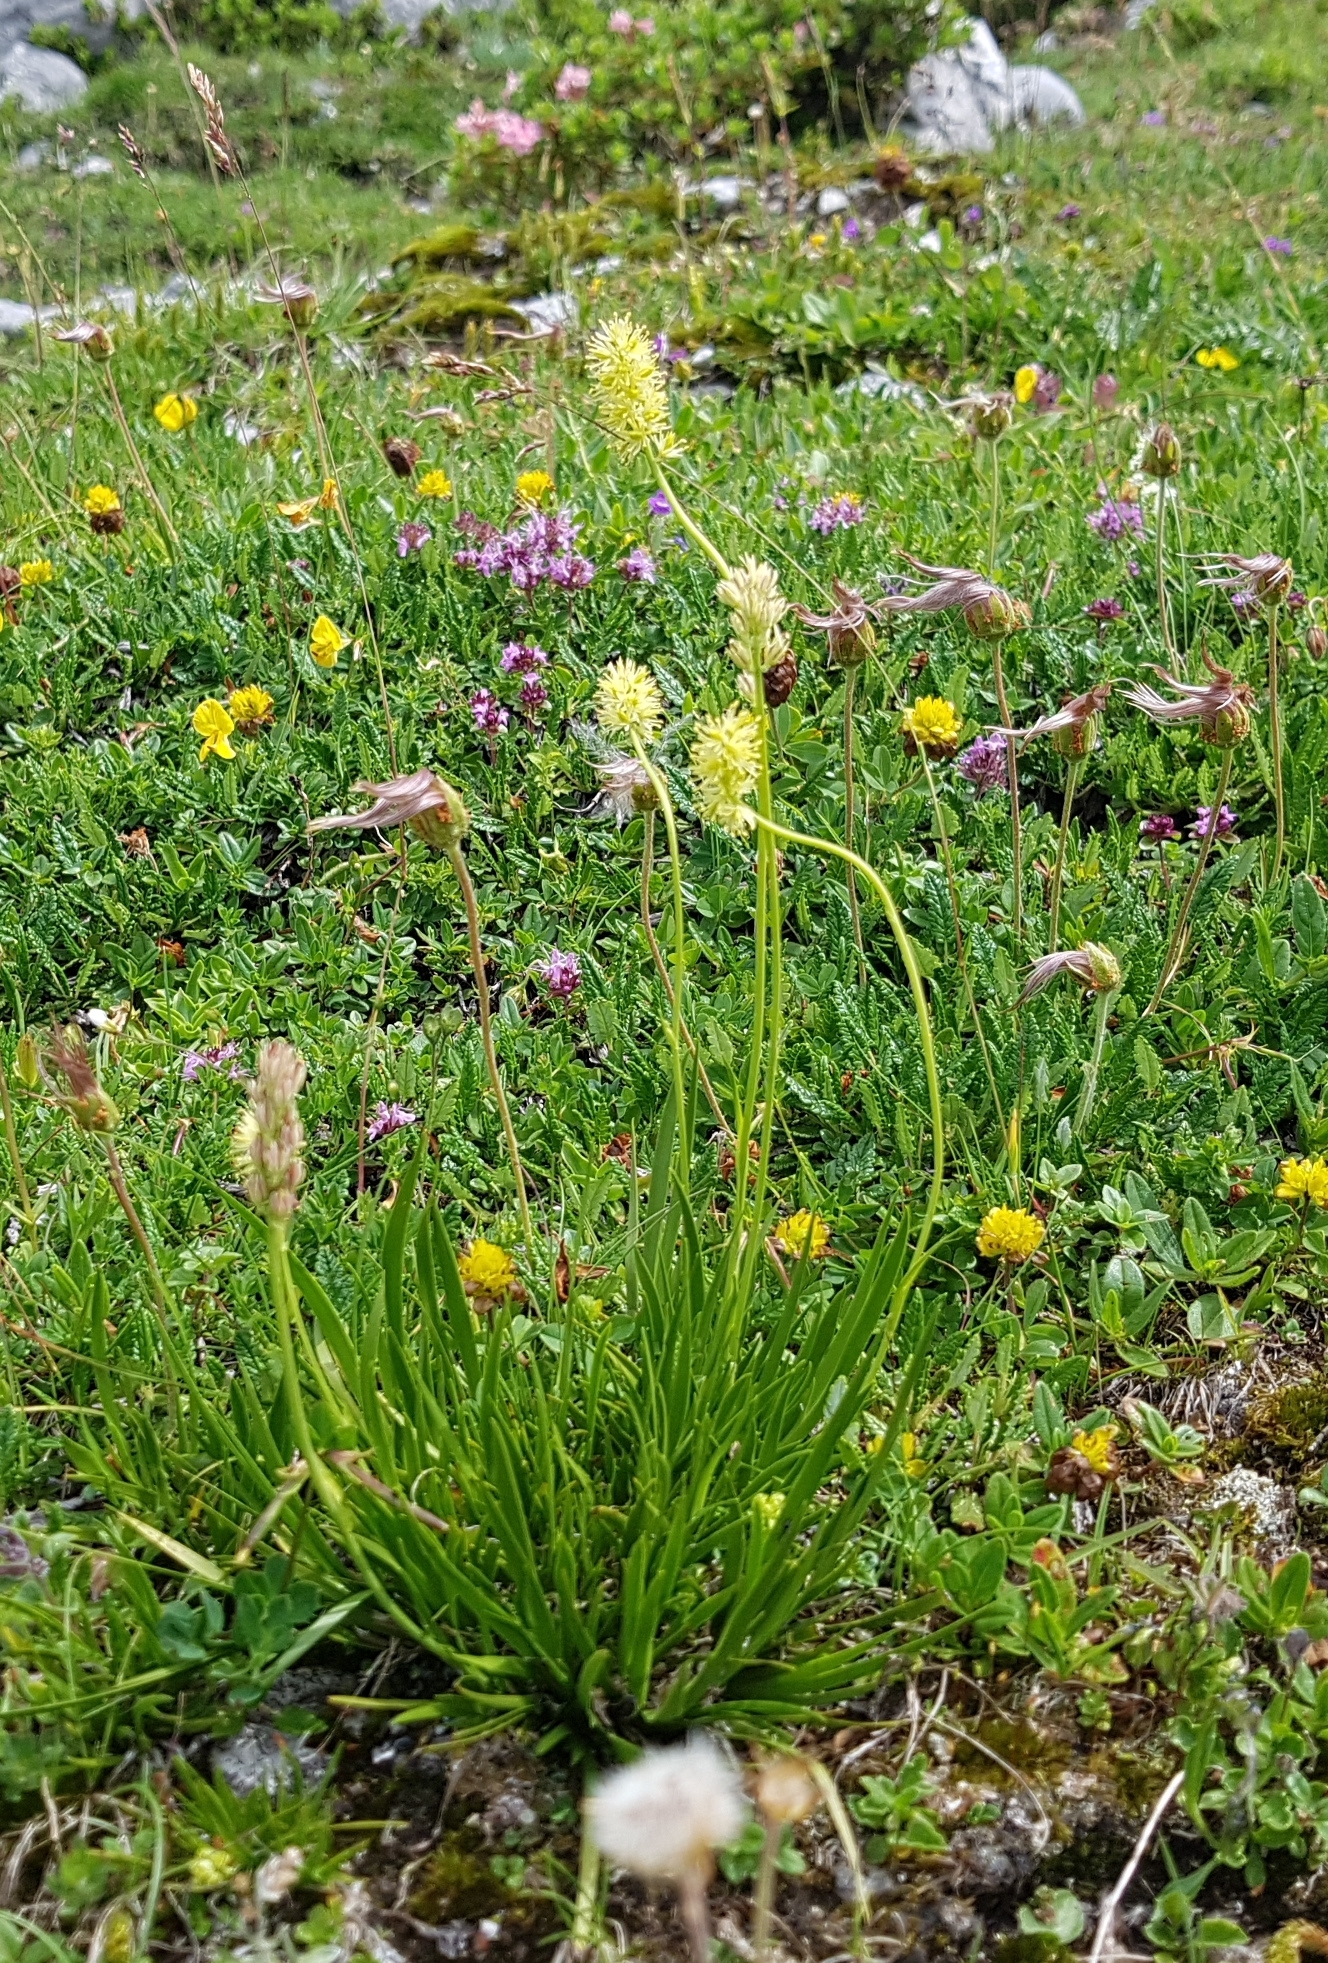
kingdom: Plantae
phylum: Tracheophyta
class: Liliopsida
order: Alismatales
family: Tofieldiaceae
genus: Tofieldia
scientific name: Tofieldia calyculata
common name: German-asphodel
